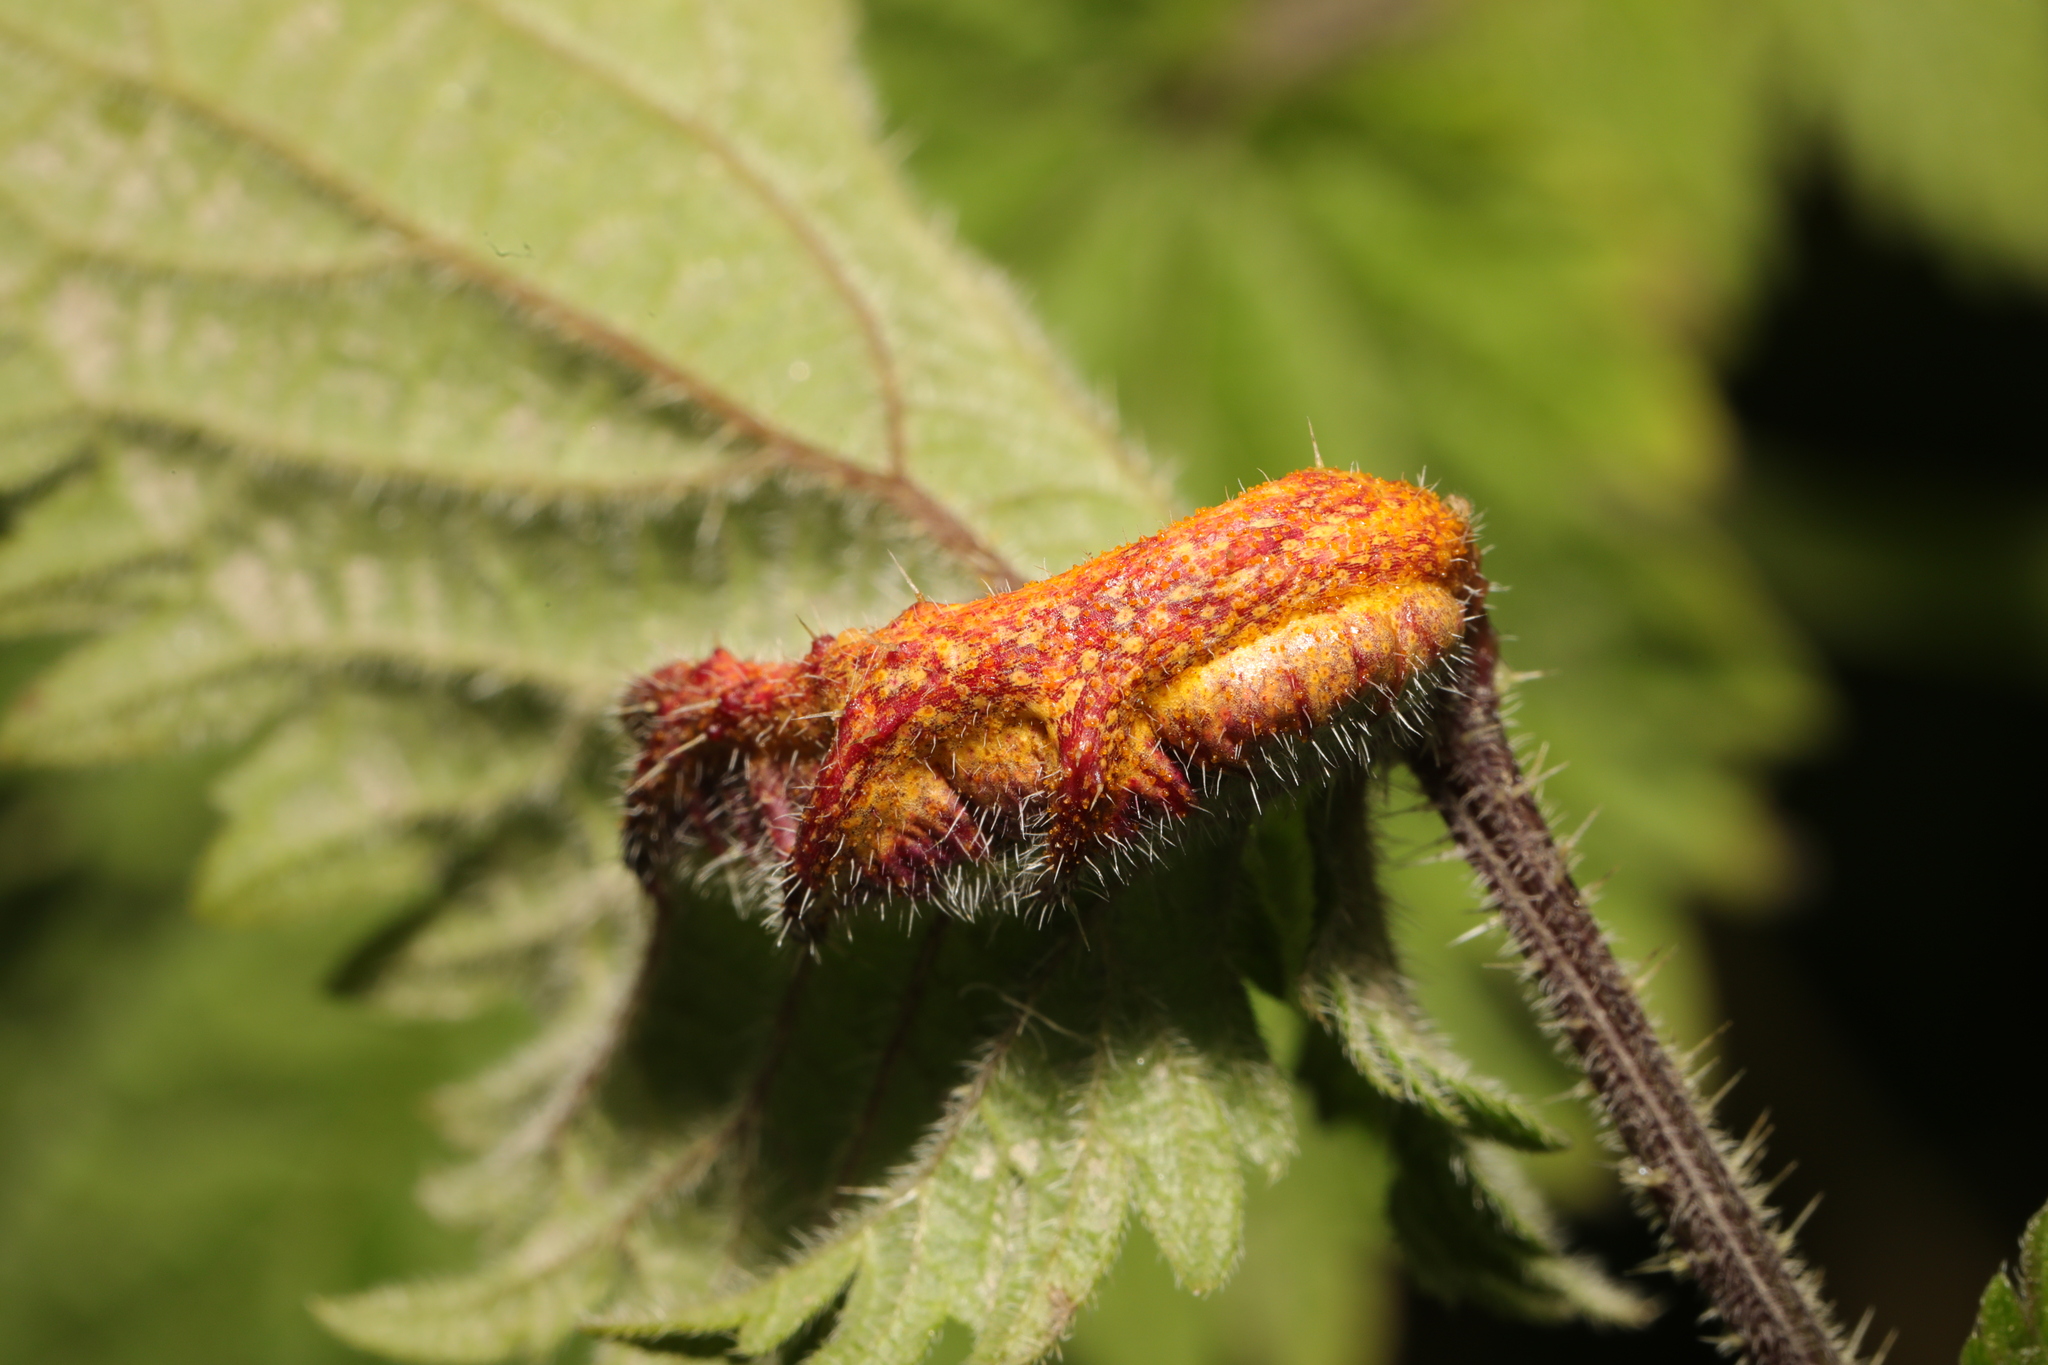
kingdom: Fungi
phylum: Basidiomycota
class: Pucciniomycetes
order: Pucciniales
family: Pucciniaceae
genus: Puccinia
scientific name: Puccinia urticata
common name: Nettle clustercup rust fungus
